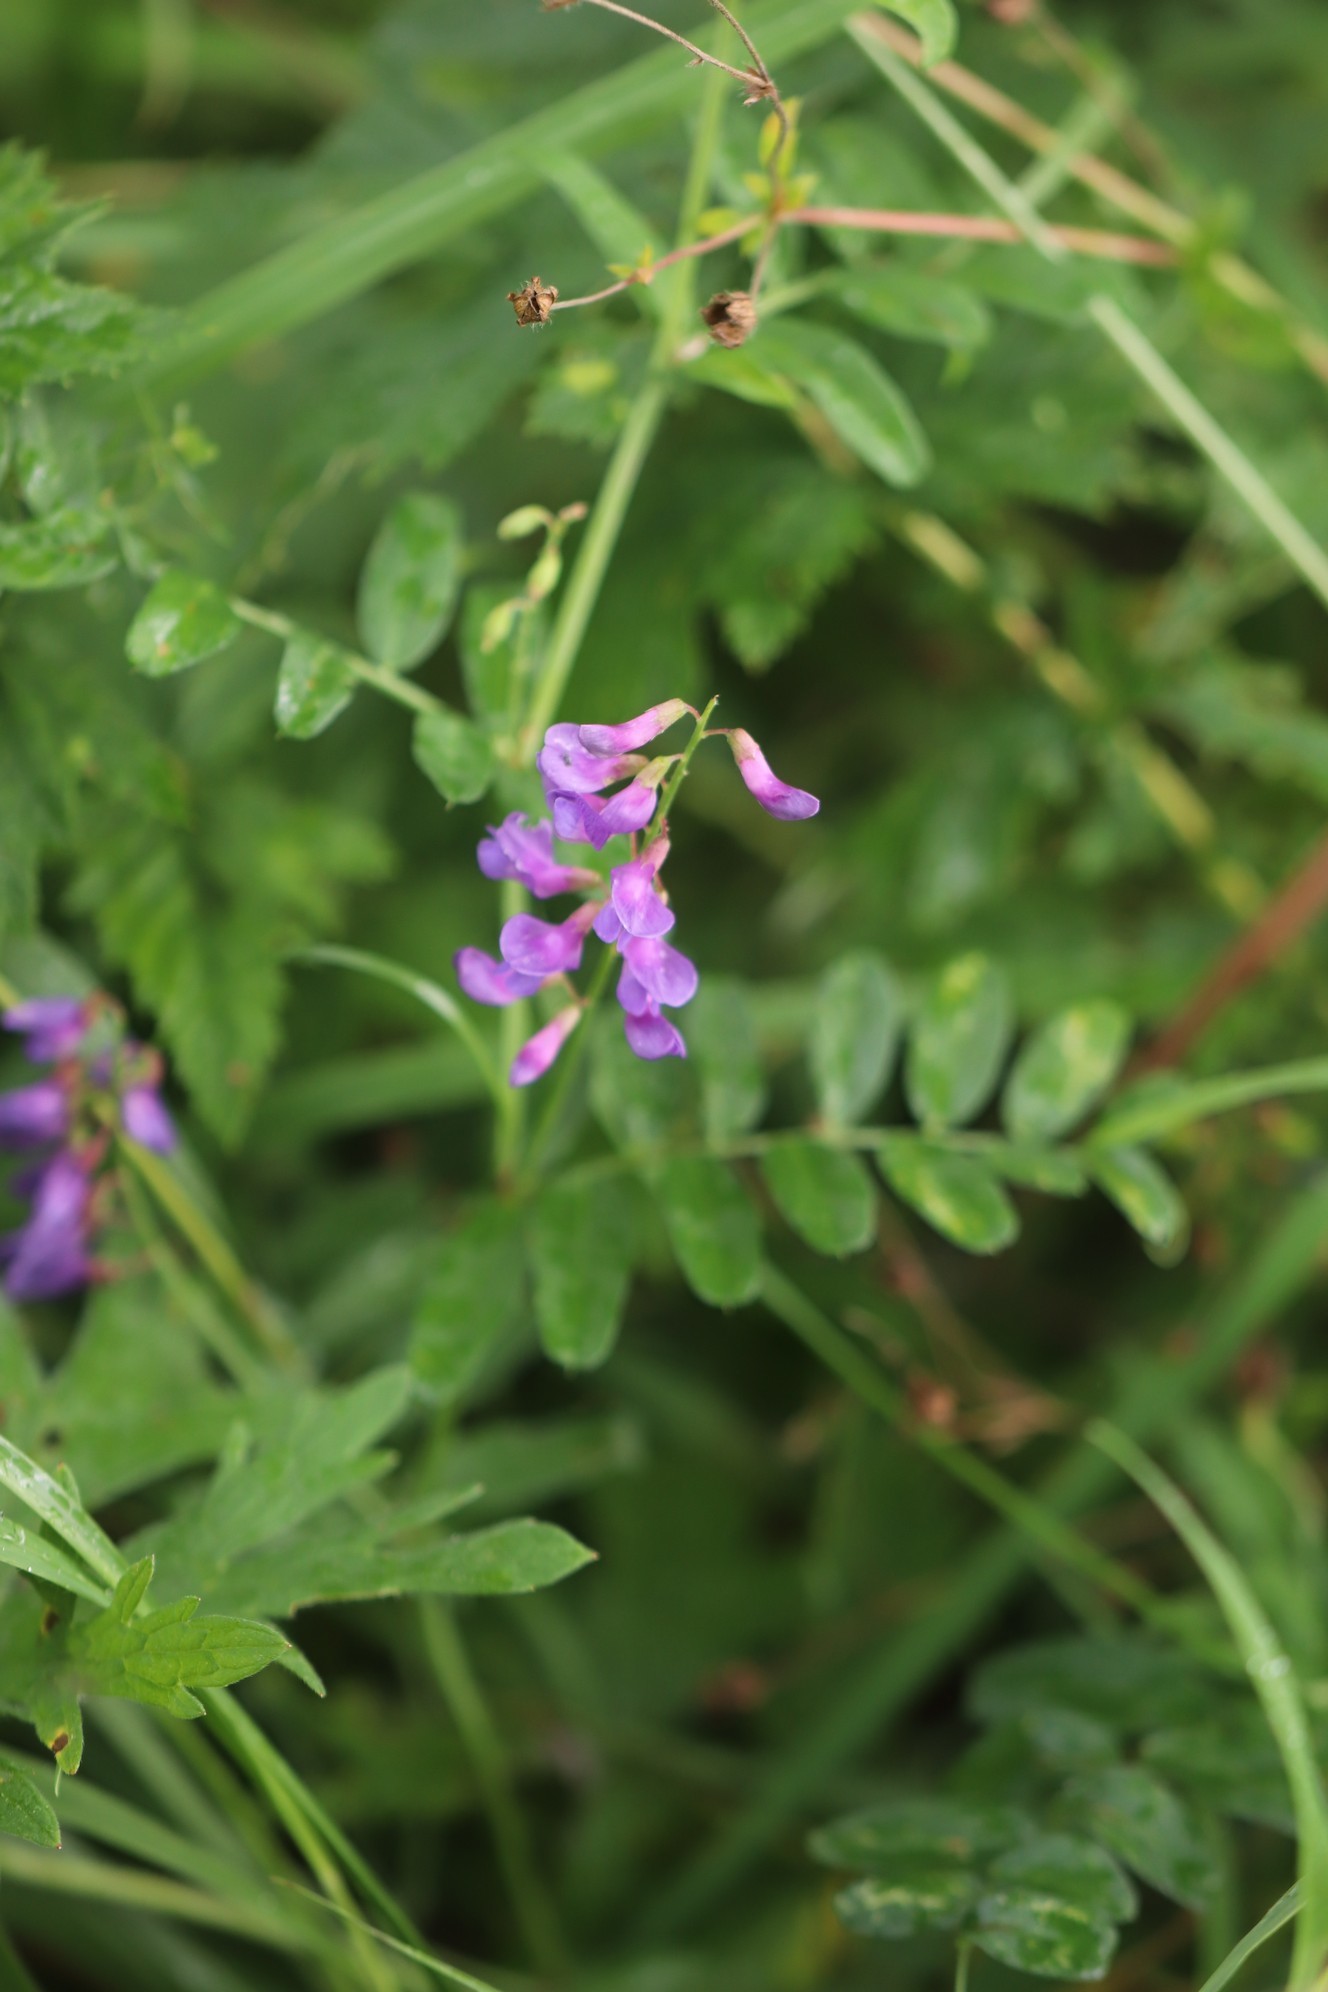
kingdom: Plantae
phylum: Tracheophyta
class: Magnoliopsida
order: Fabales
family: Fabaceae
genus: Vicia
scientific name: Vicia amoena
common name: Cheder ebs
